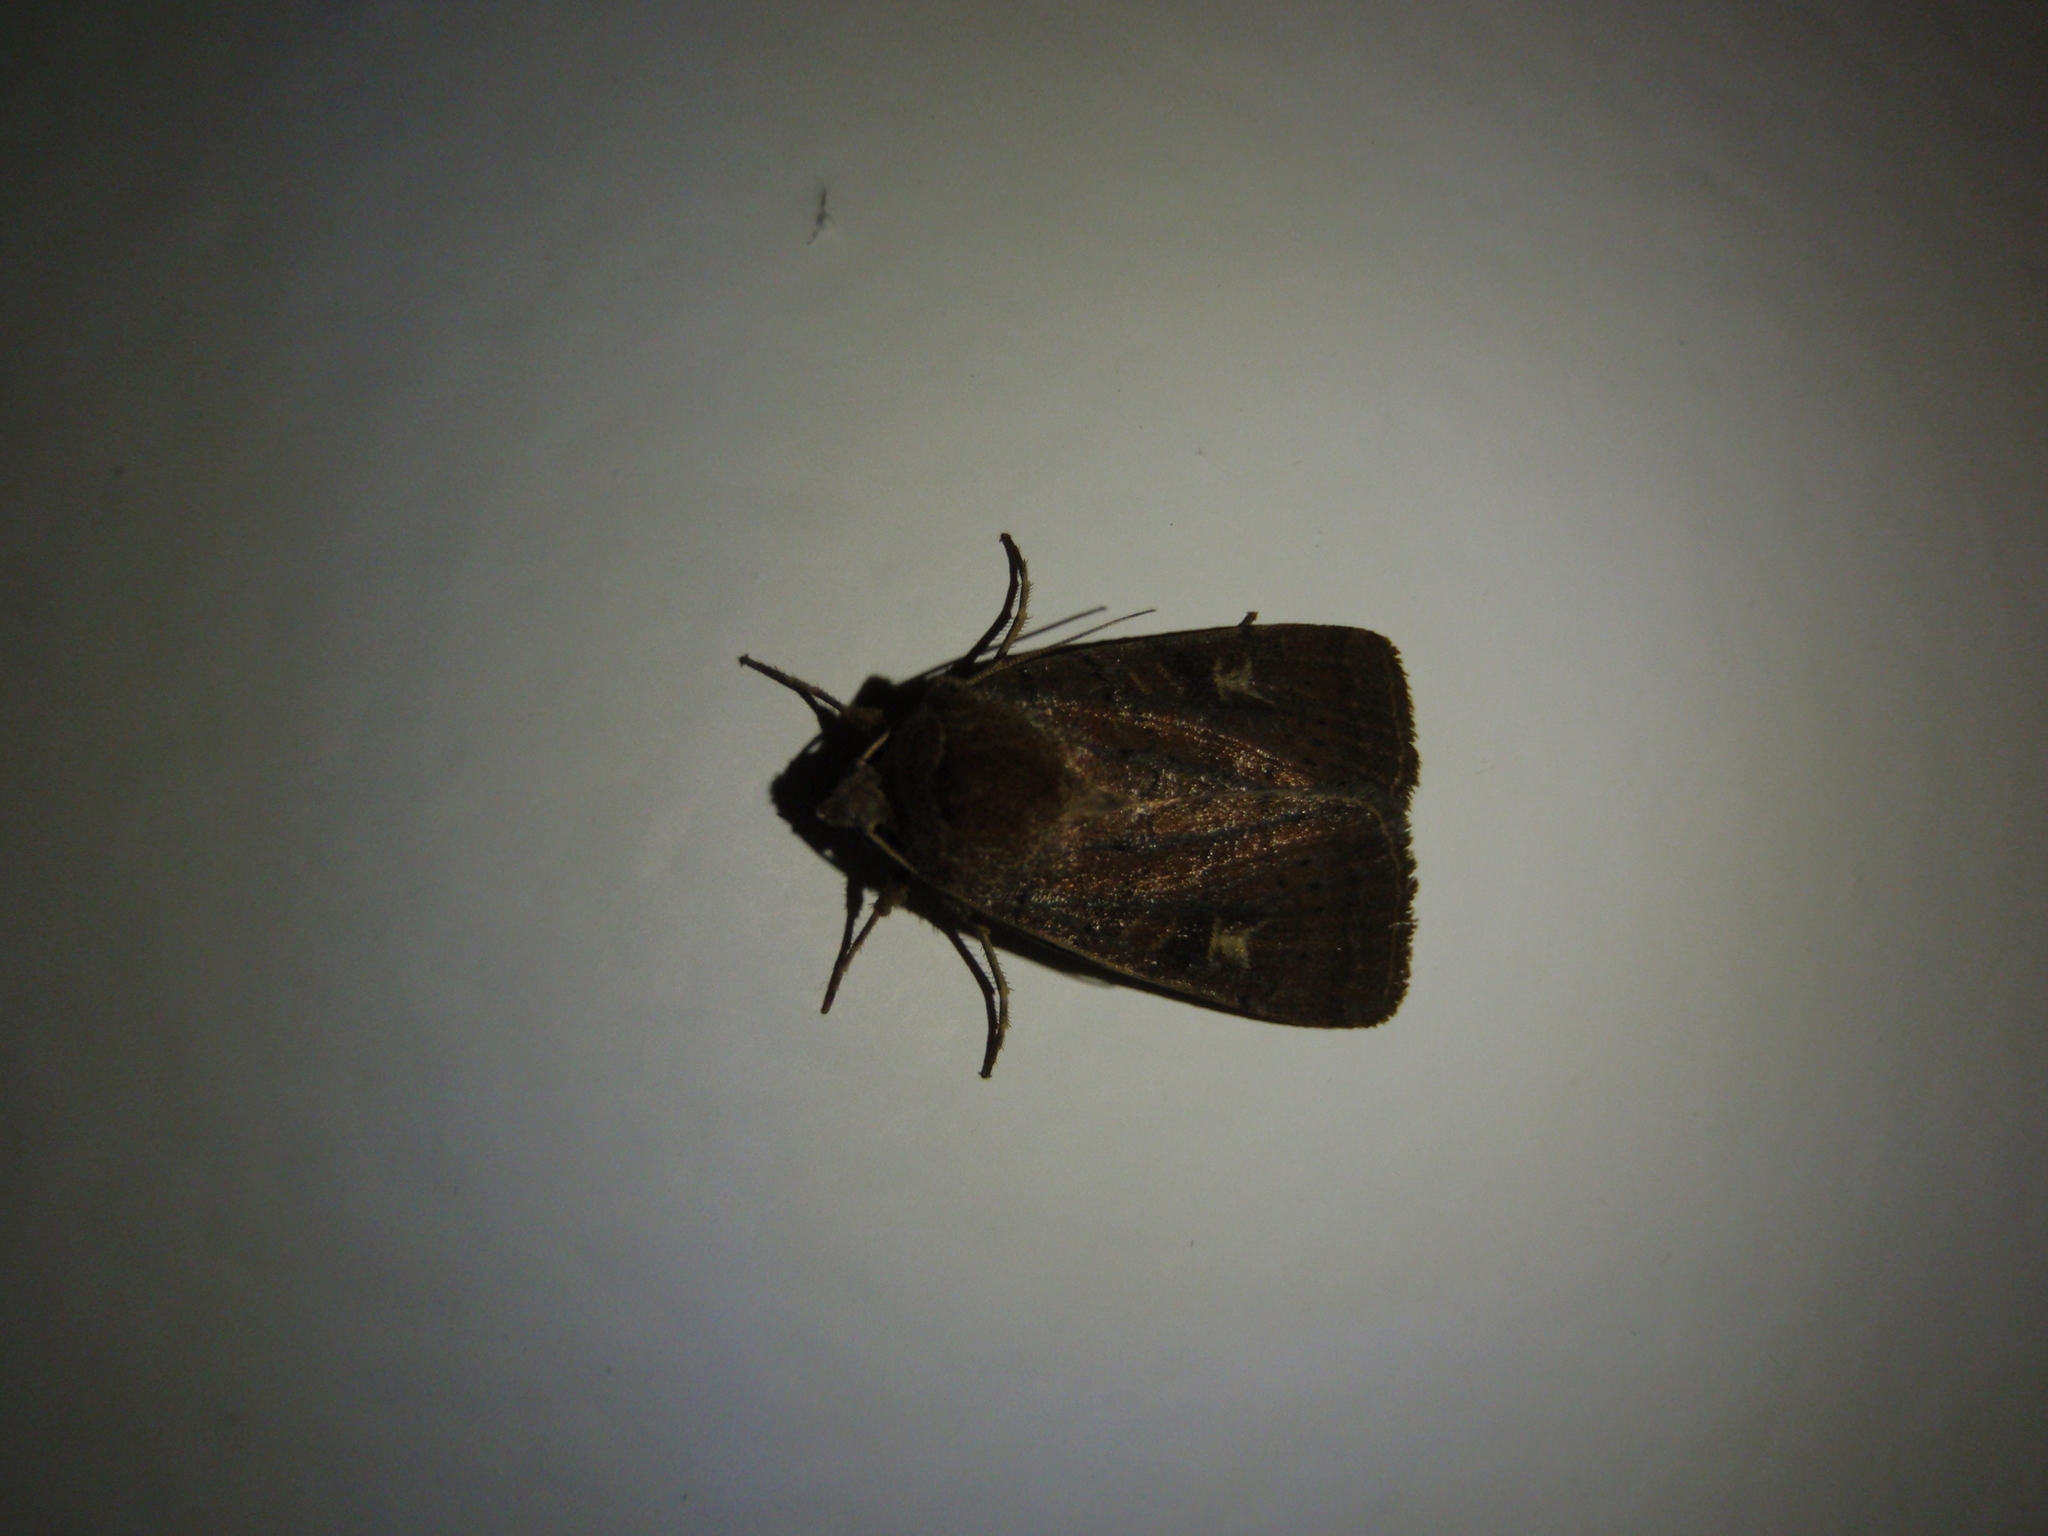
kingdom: Animalia
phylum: Arthropoda
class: Insecta
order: Lepidoptera
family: Noctuidae
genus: Xestia
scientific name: Xestia xanthographa
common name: Square-spot rustic
